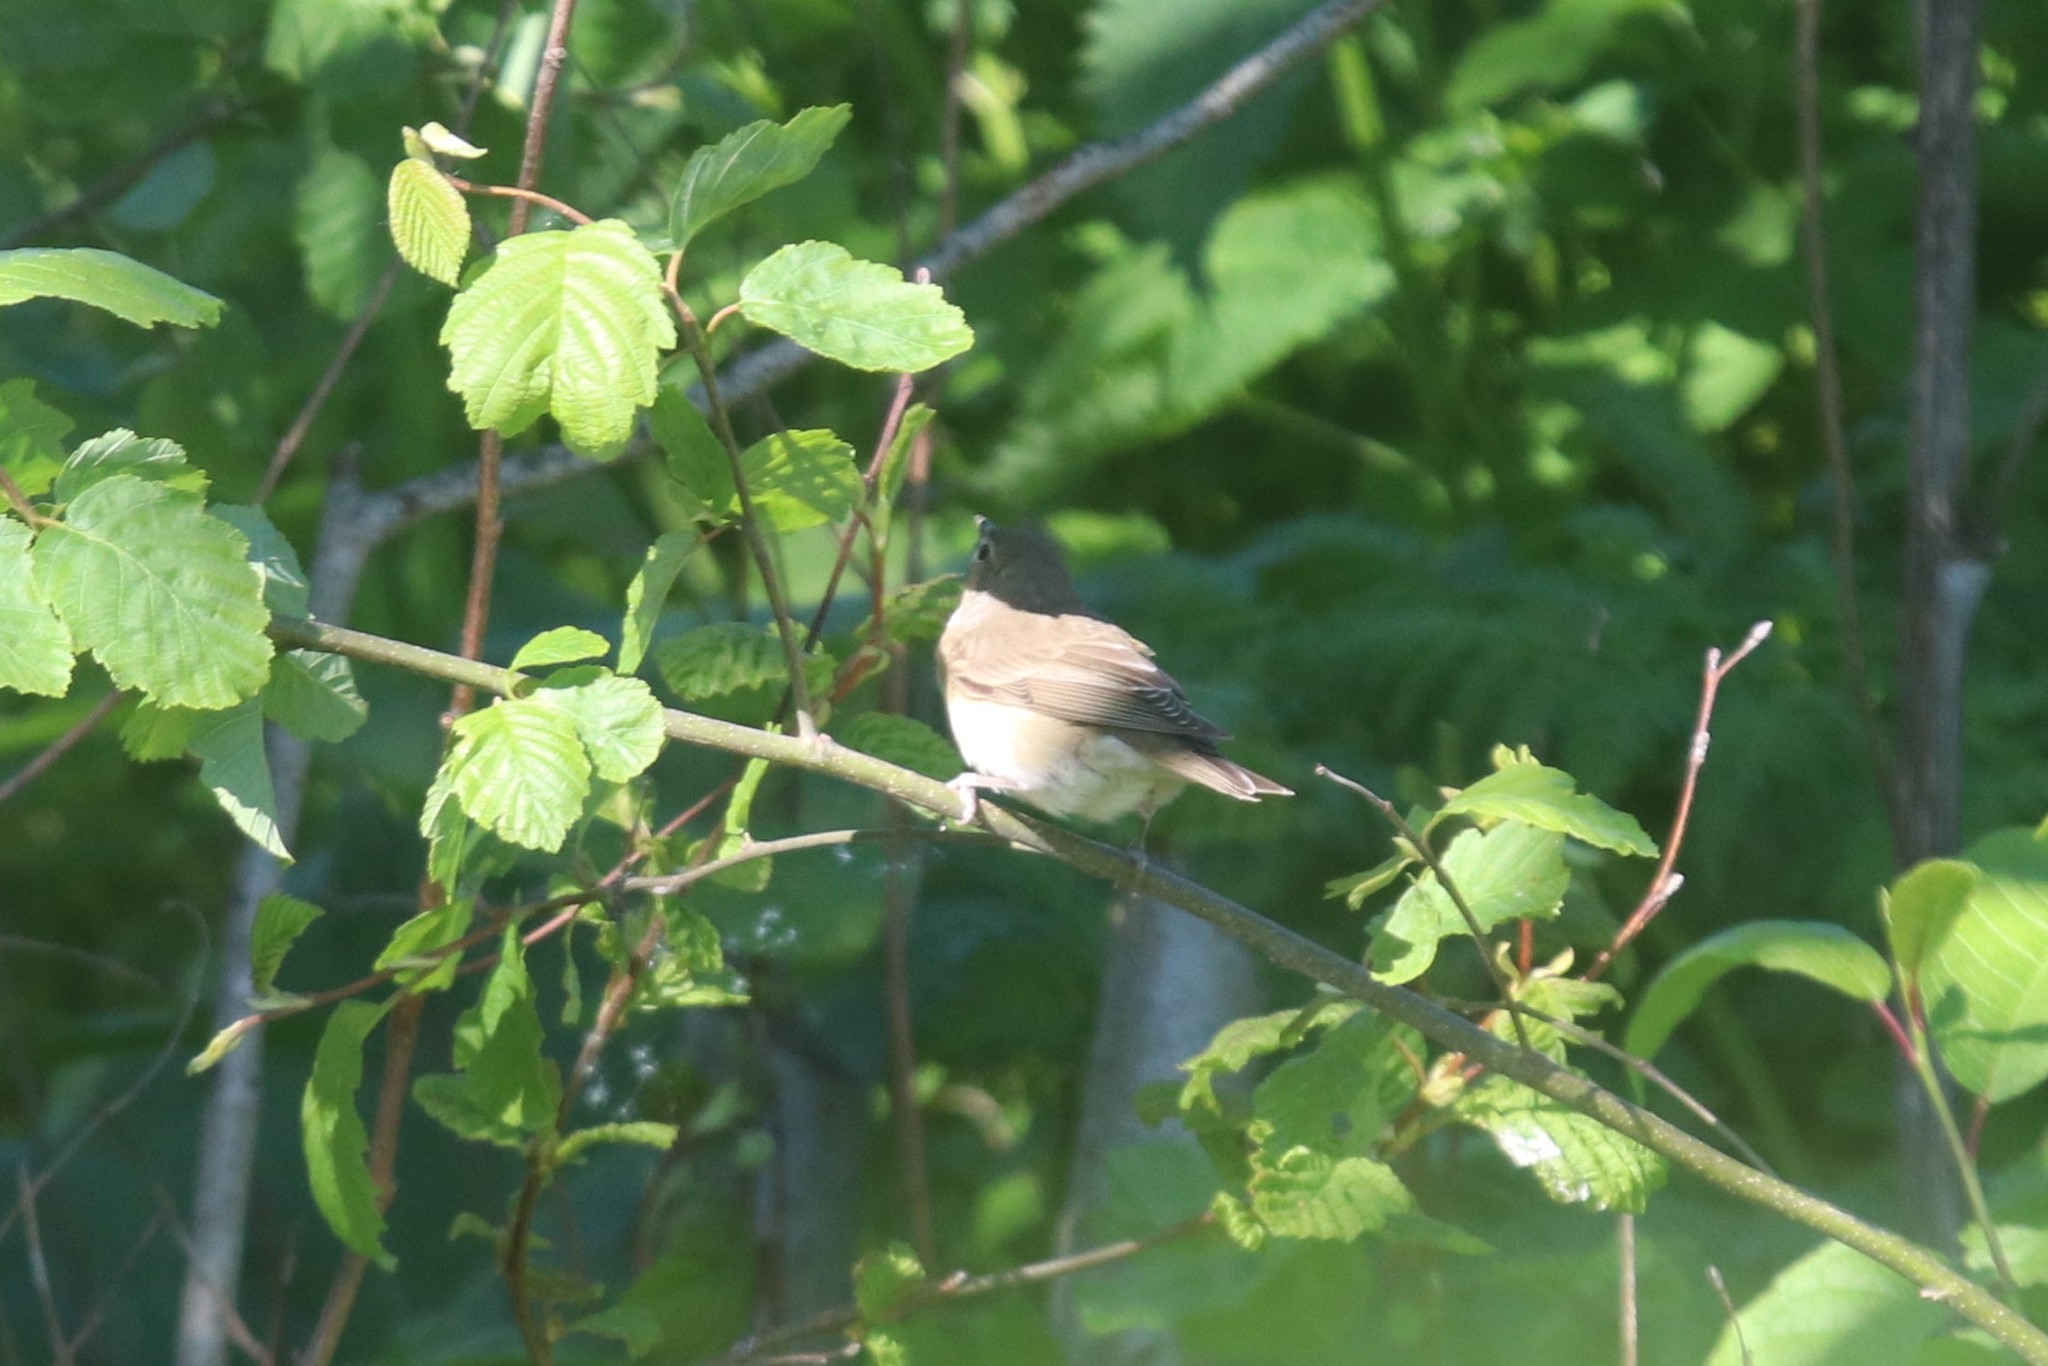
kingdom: Animalia
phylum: Chordata
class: Aves
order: Passeriformes
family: Sylviidae
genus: Sylvia
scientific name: Sylvia borin
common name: Garden warbler
